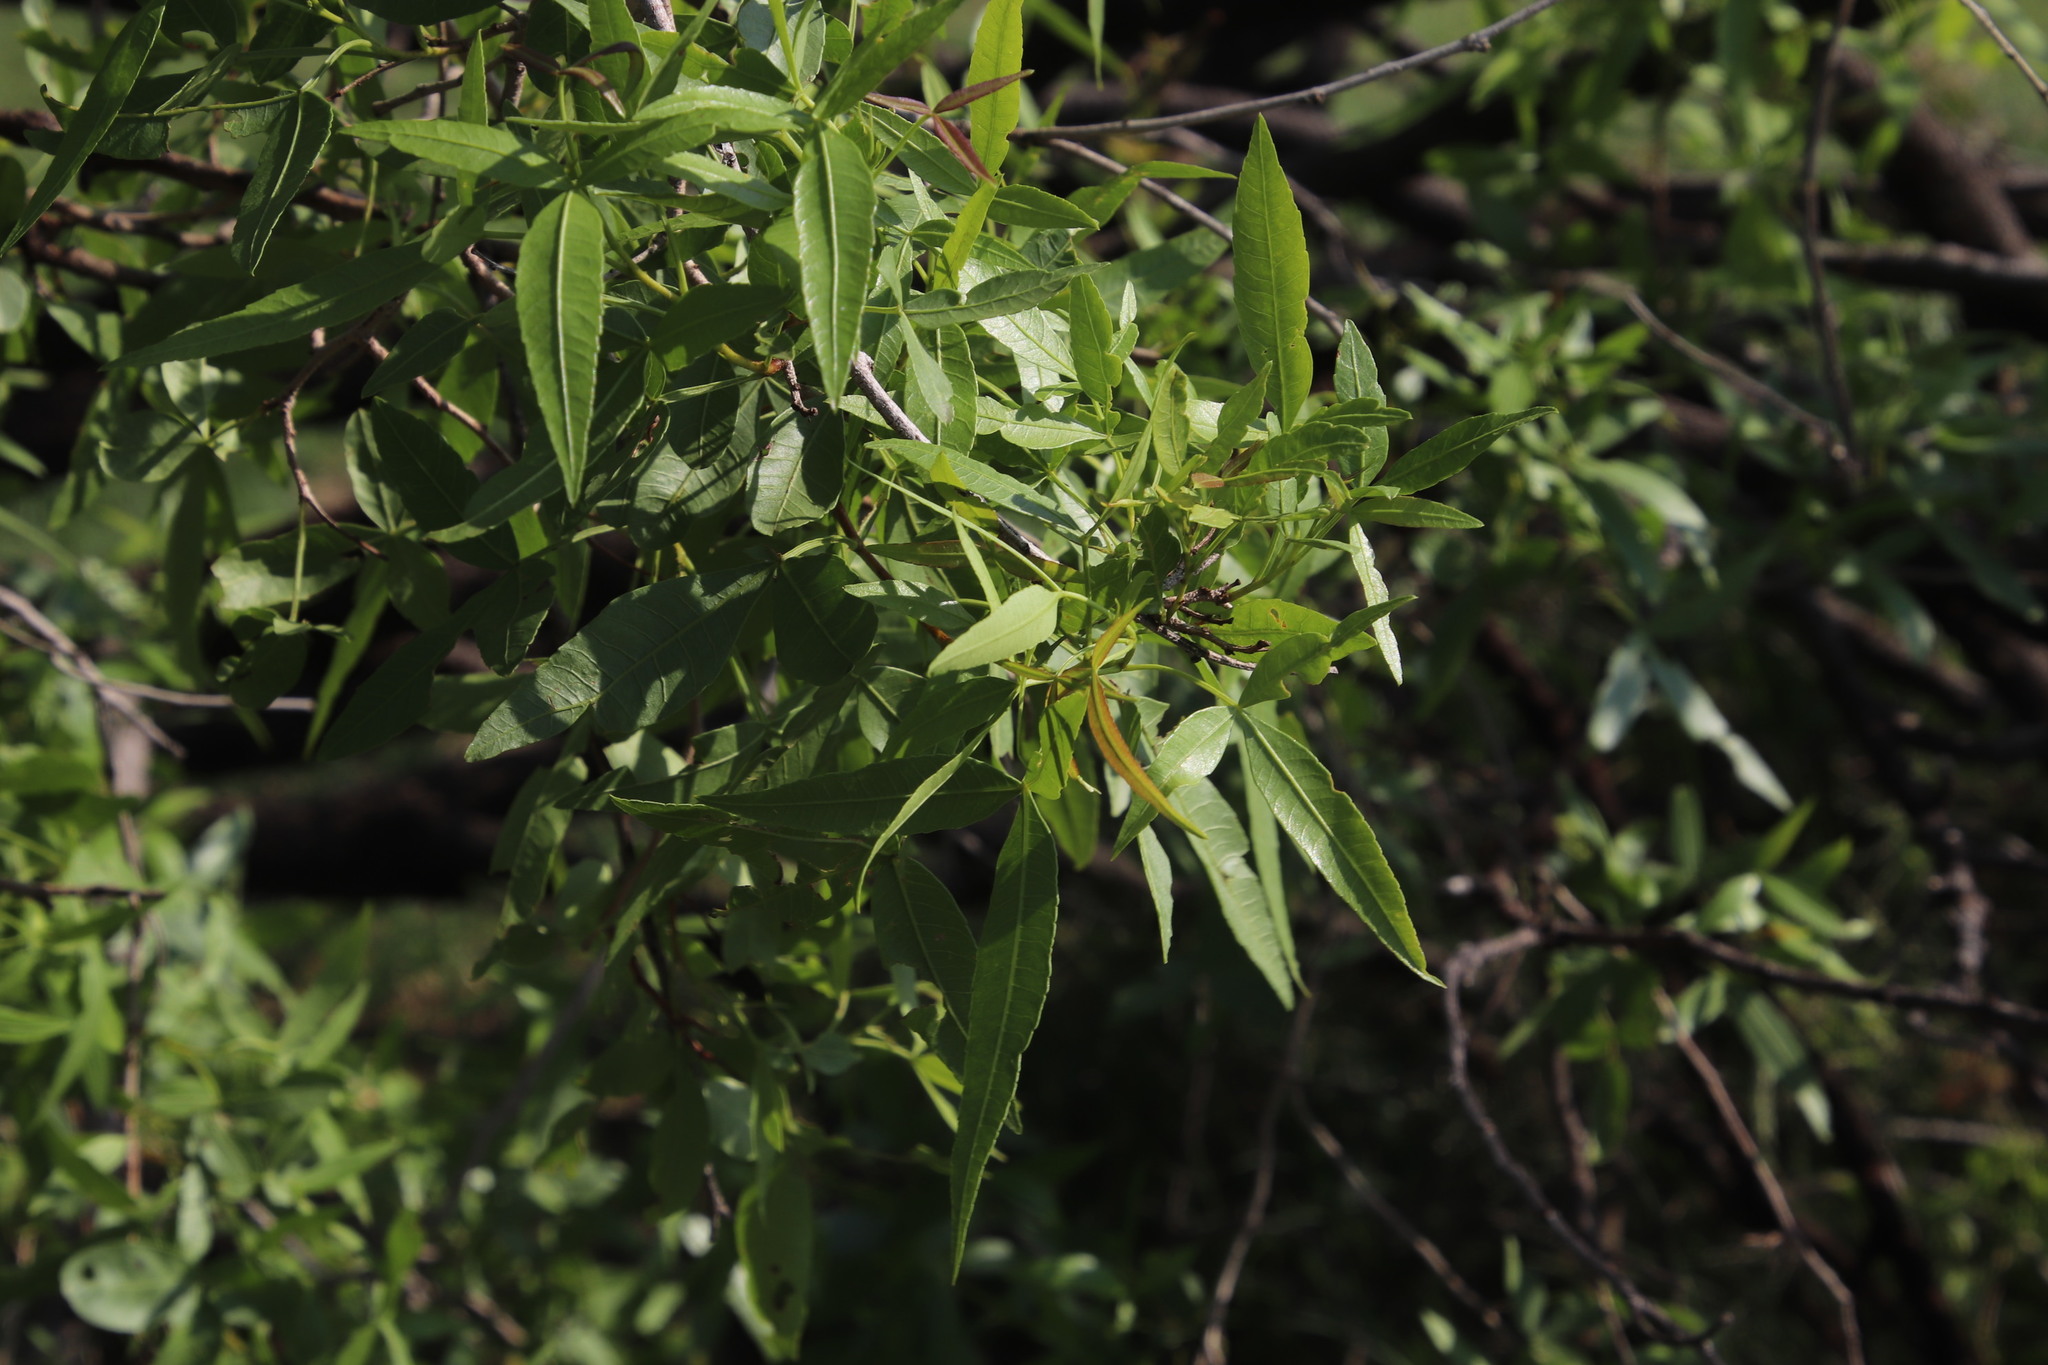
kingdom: Plantae
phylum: Tracheophyta
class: Magnoliopsida
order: Sapindales
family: Anacardiaceae
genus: Searsia
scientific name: Searsia lancea
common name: Cashew
